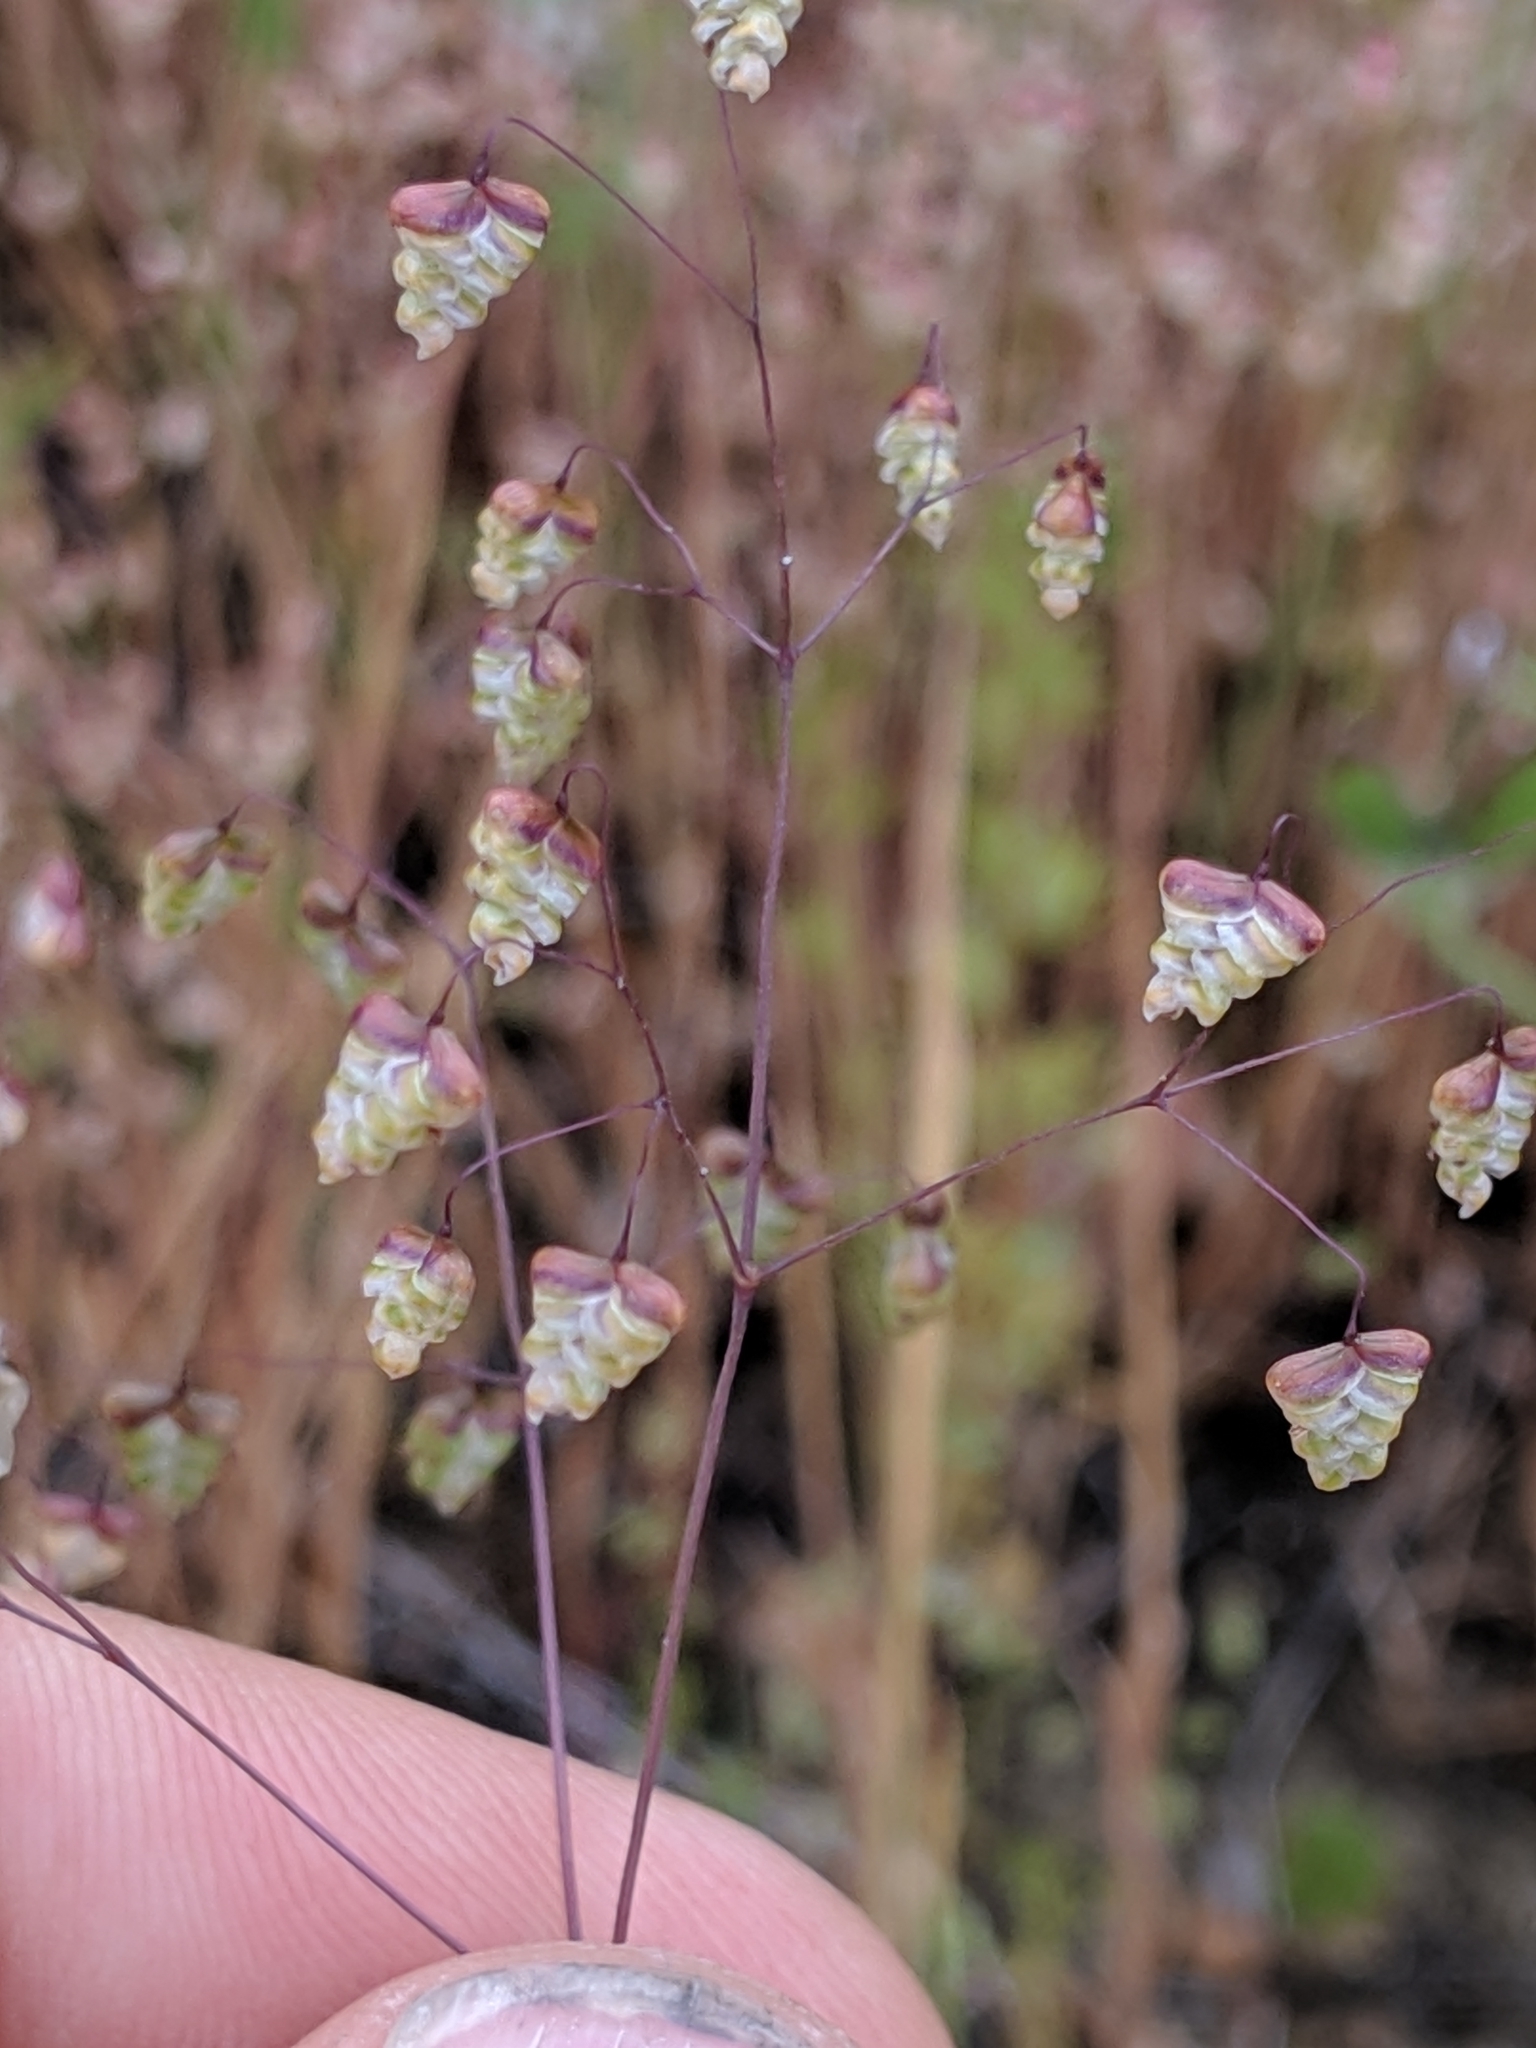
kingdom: Plantae
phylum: Tracheophyta
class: Liliopsida
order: Poales
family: Poaceae
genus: Briza
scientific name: Briza minor
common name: Lesser quaking-grass
